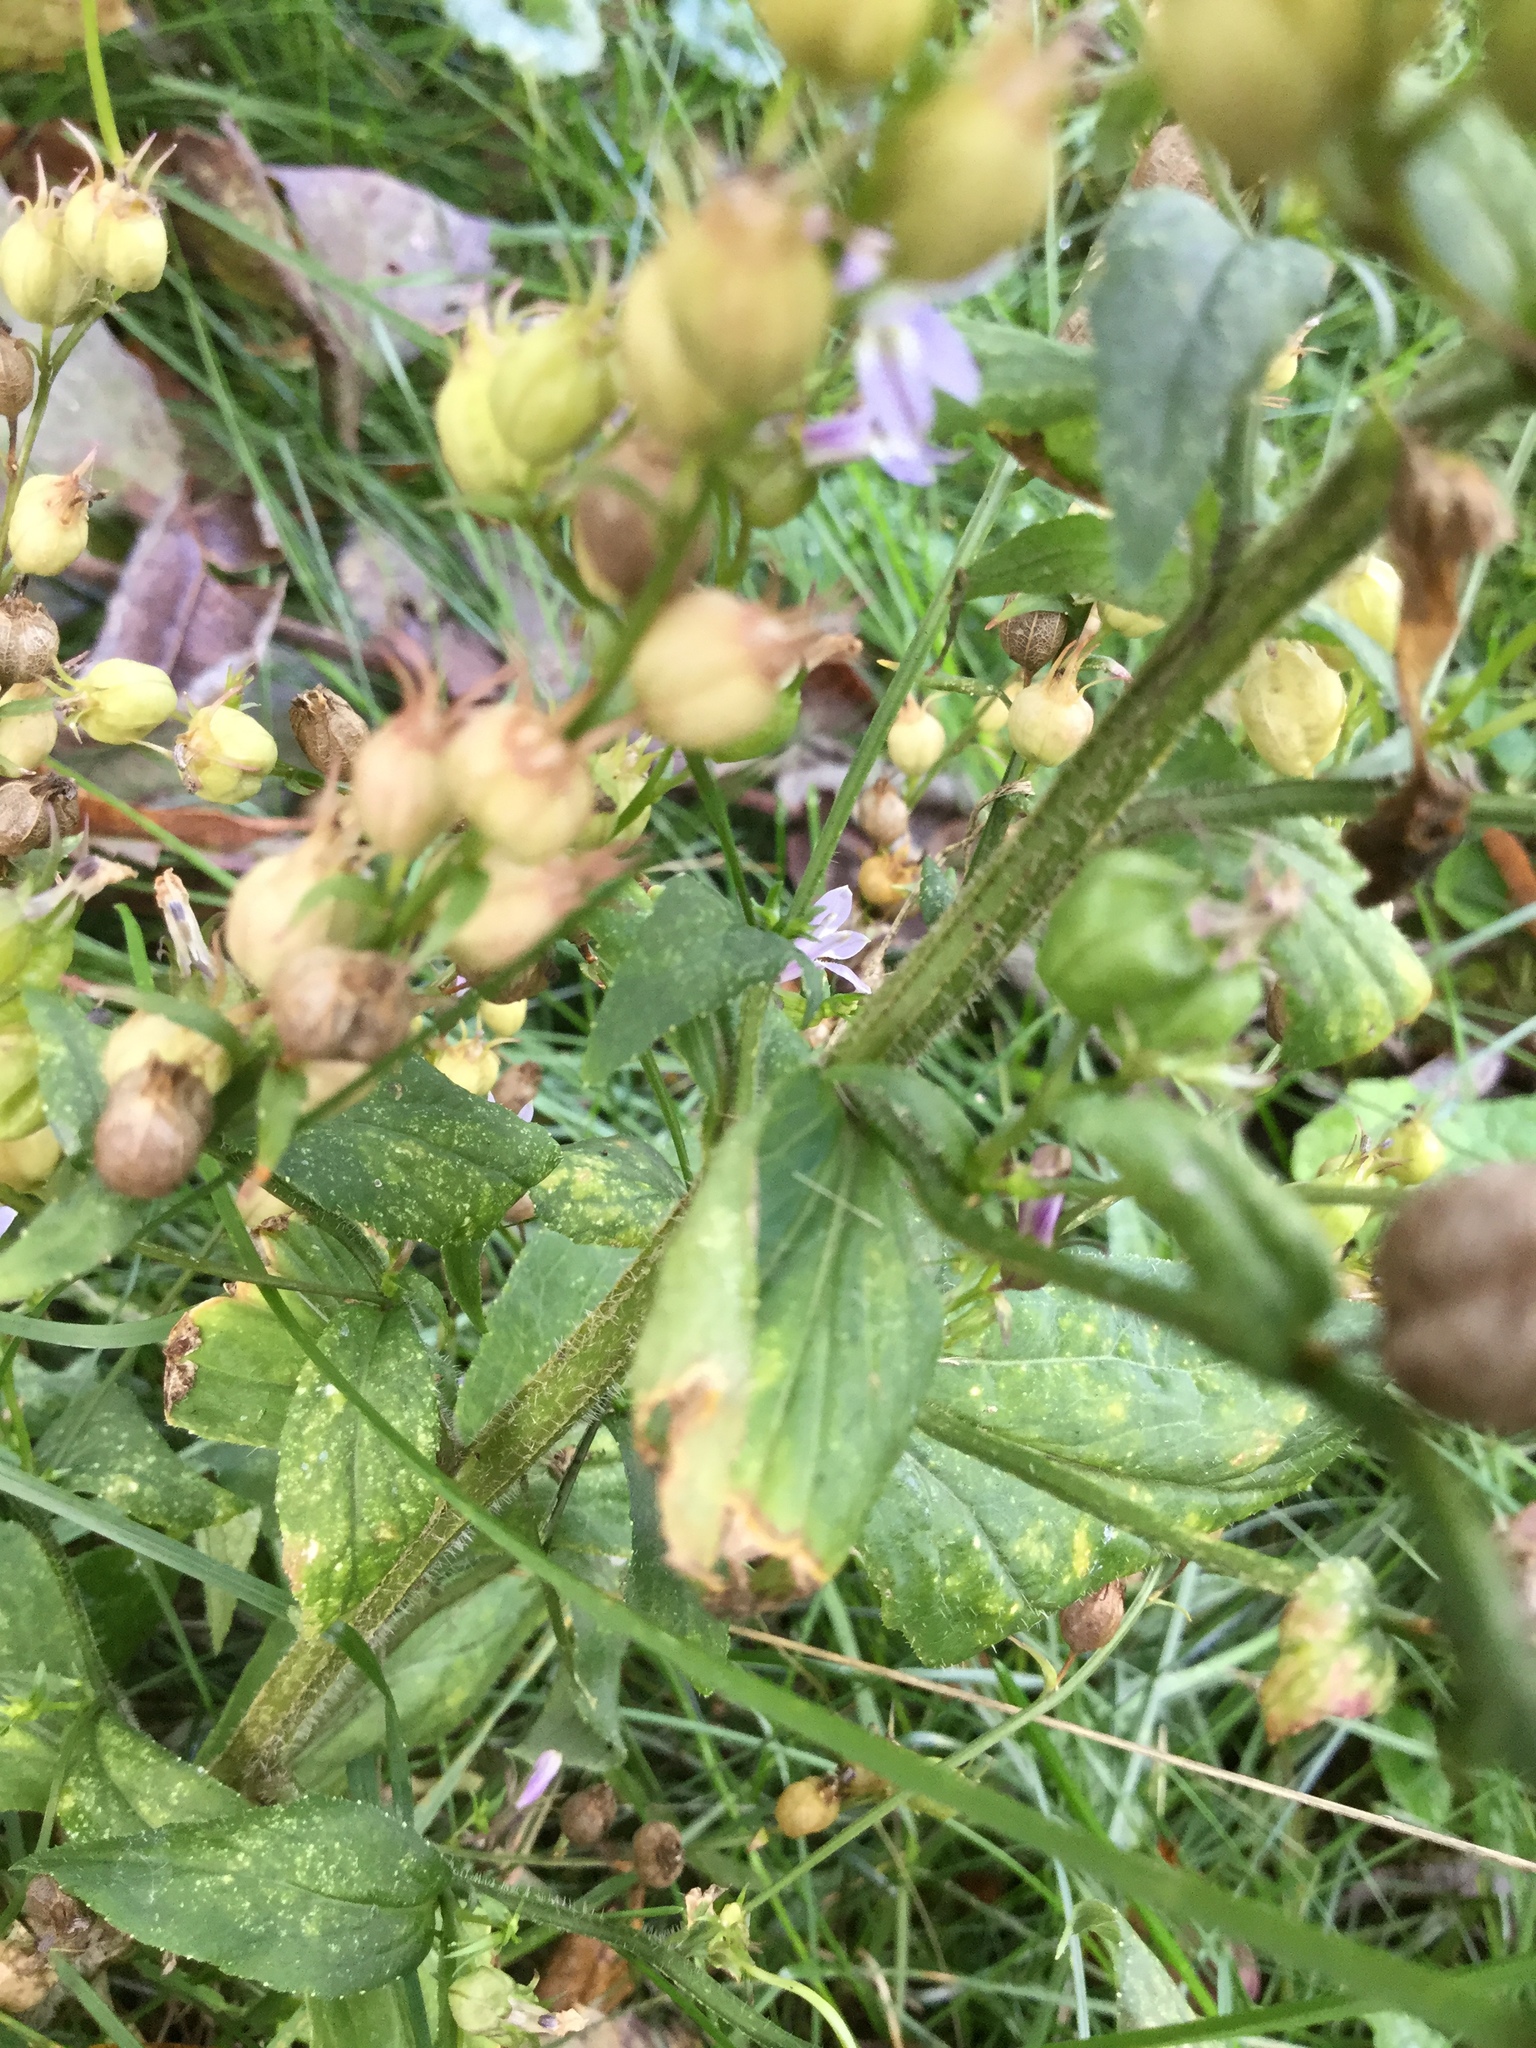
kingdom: Plantae
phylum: Tracheophyta
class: Magnoliopsida
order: Asterales
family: Campanulaceae
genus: Lobelia
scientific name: Lobelia inflata
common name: Indian tobacco
